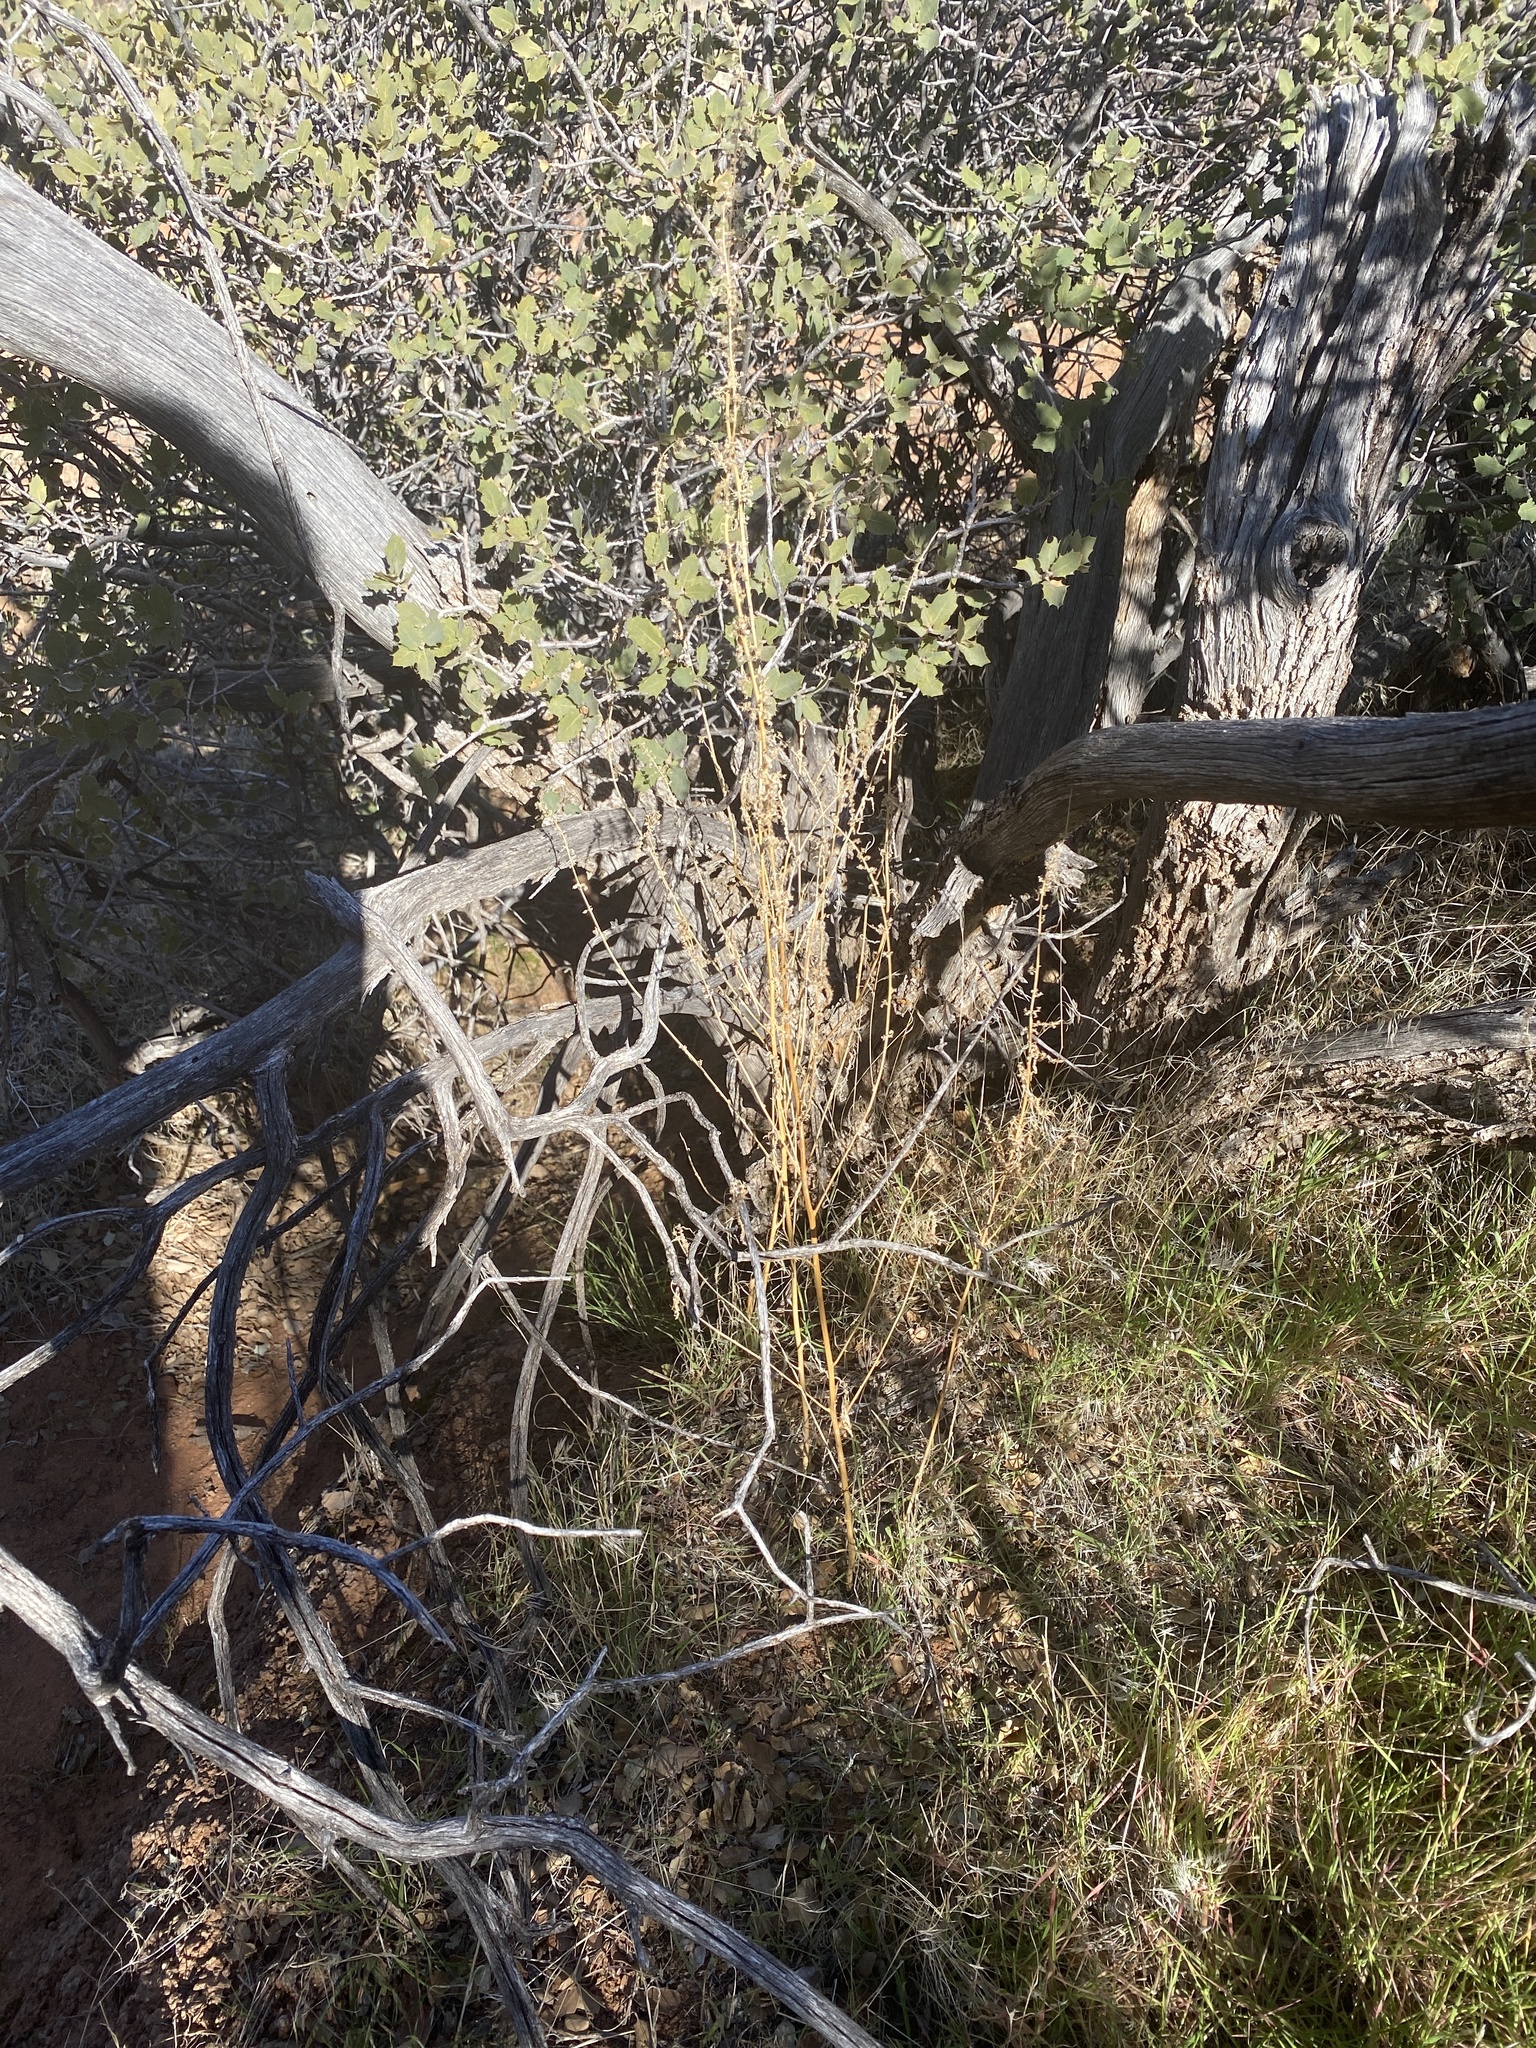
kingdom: Plantae
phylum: Tracheophyta
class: Magnoliopsida
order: Caryophyllales
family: Amaranthaceae
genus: Amaranthus
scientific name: Amaranthus fimbriatus
